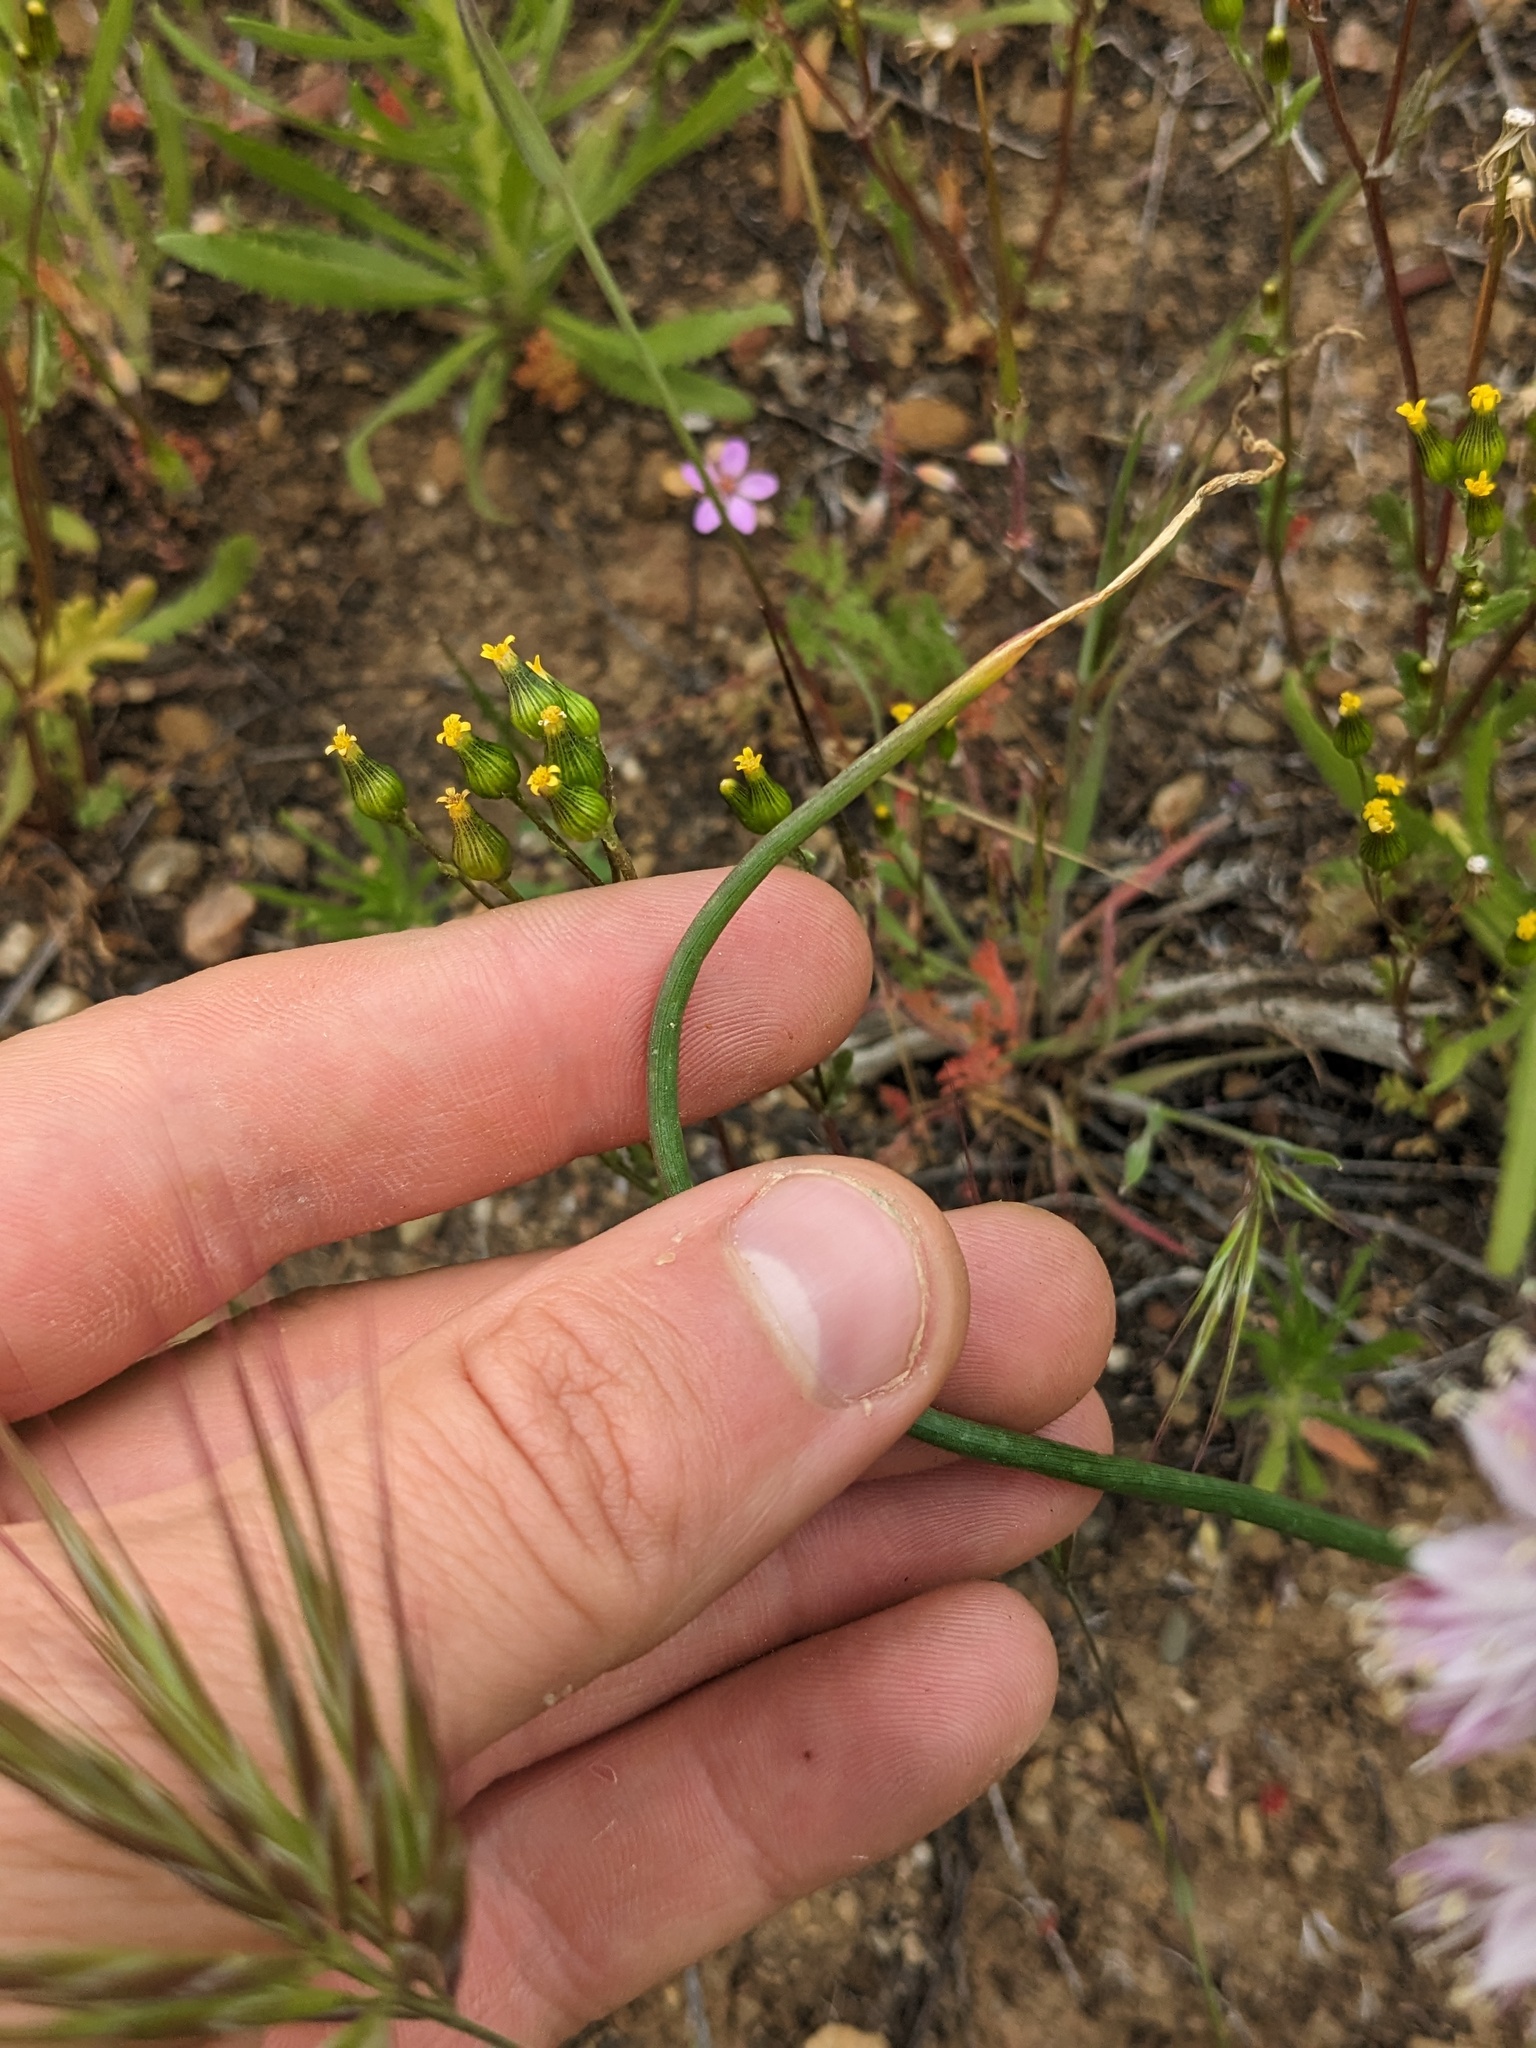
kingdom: Plantae
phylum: Tracheophyta
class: Liliopsida
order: Asparagales
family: Amaryllidaceae
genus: Allium
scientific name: Allium howellii
